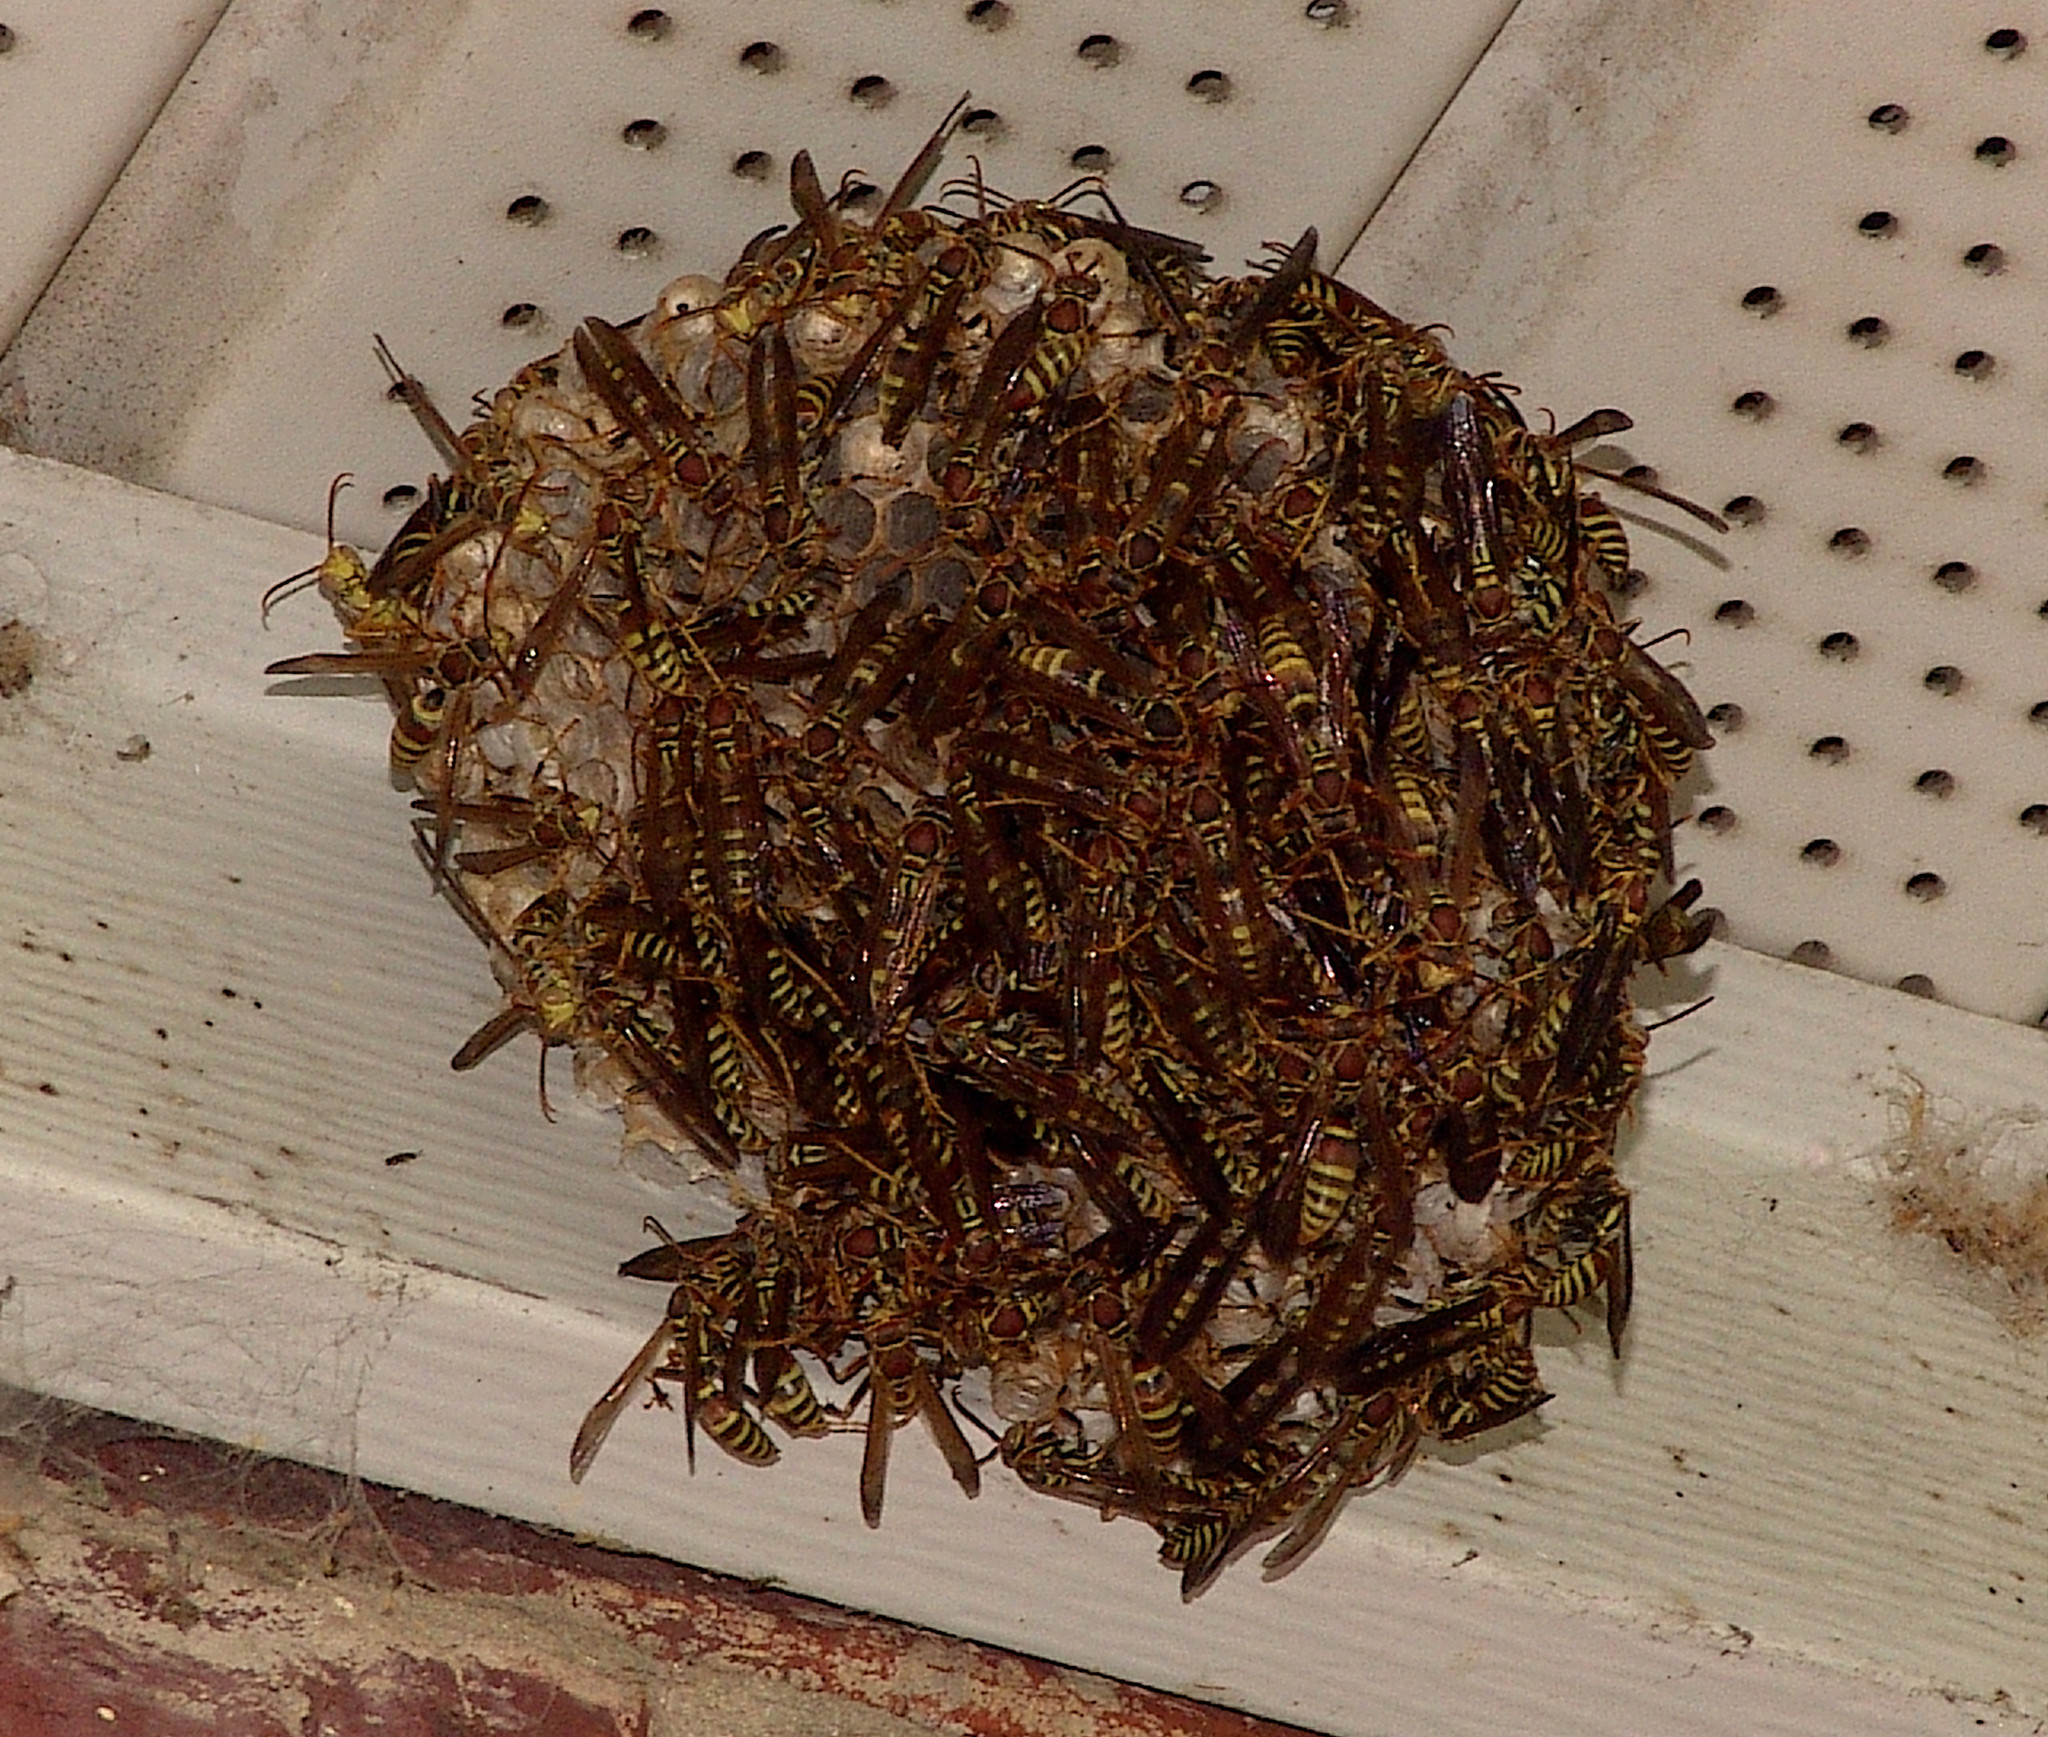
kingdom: Animalia
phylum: Arthropoda
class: Insecta
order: Hymenoptera
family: Eumenidae
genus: Polistes
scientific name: Polistes exclamans
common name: Paper wasp
